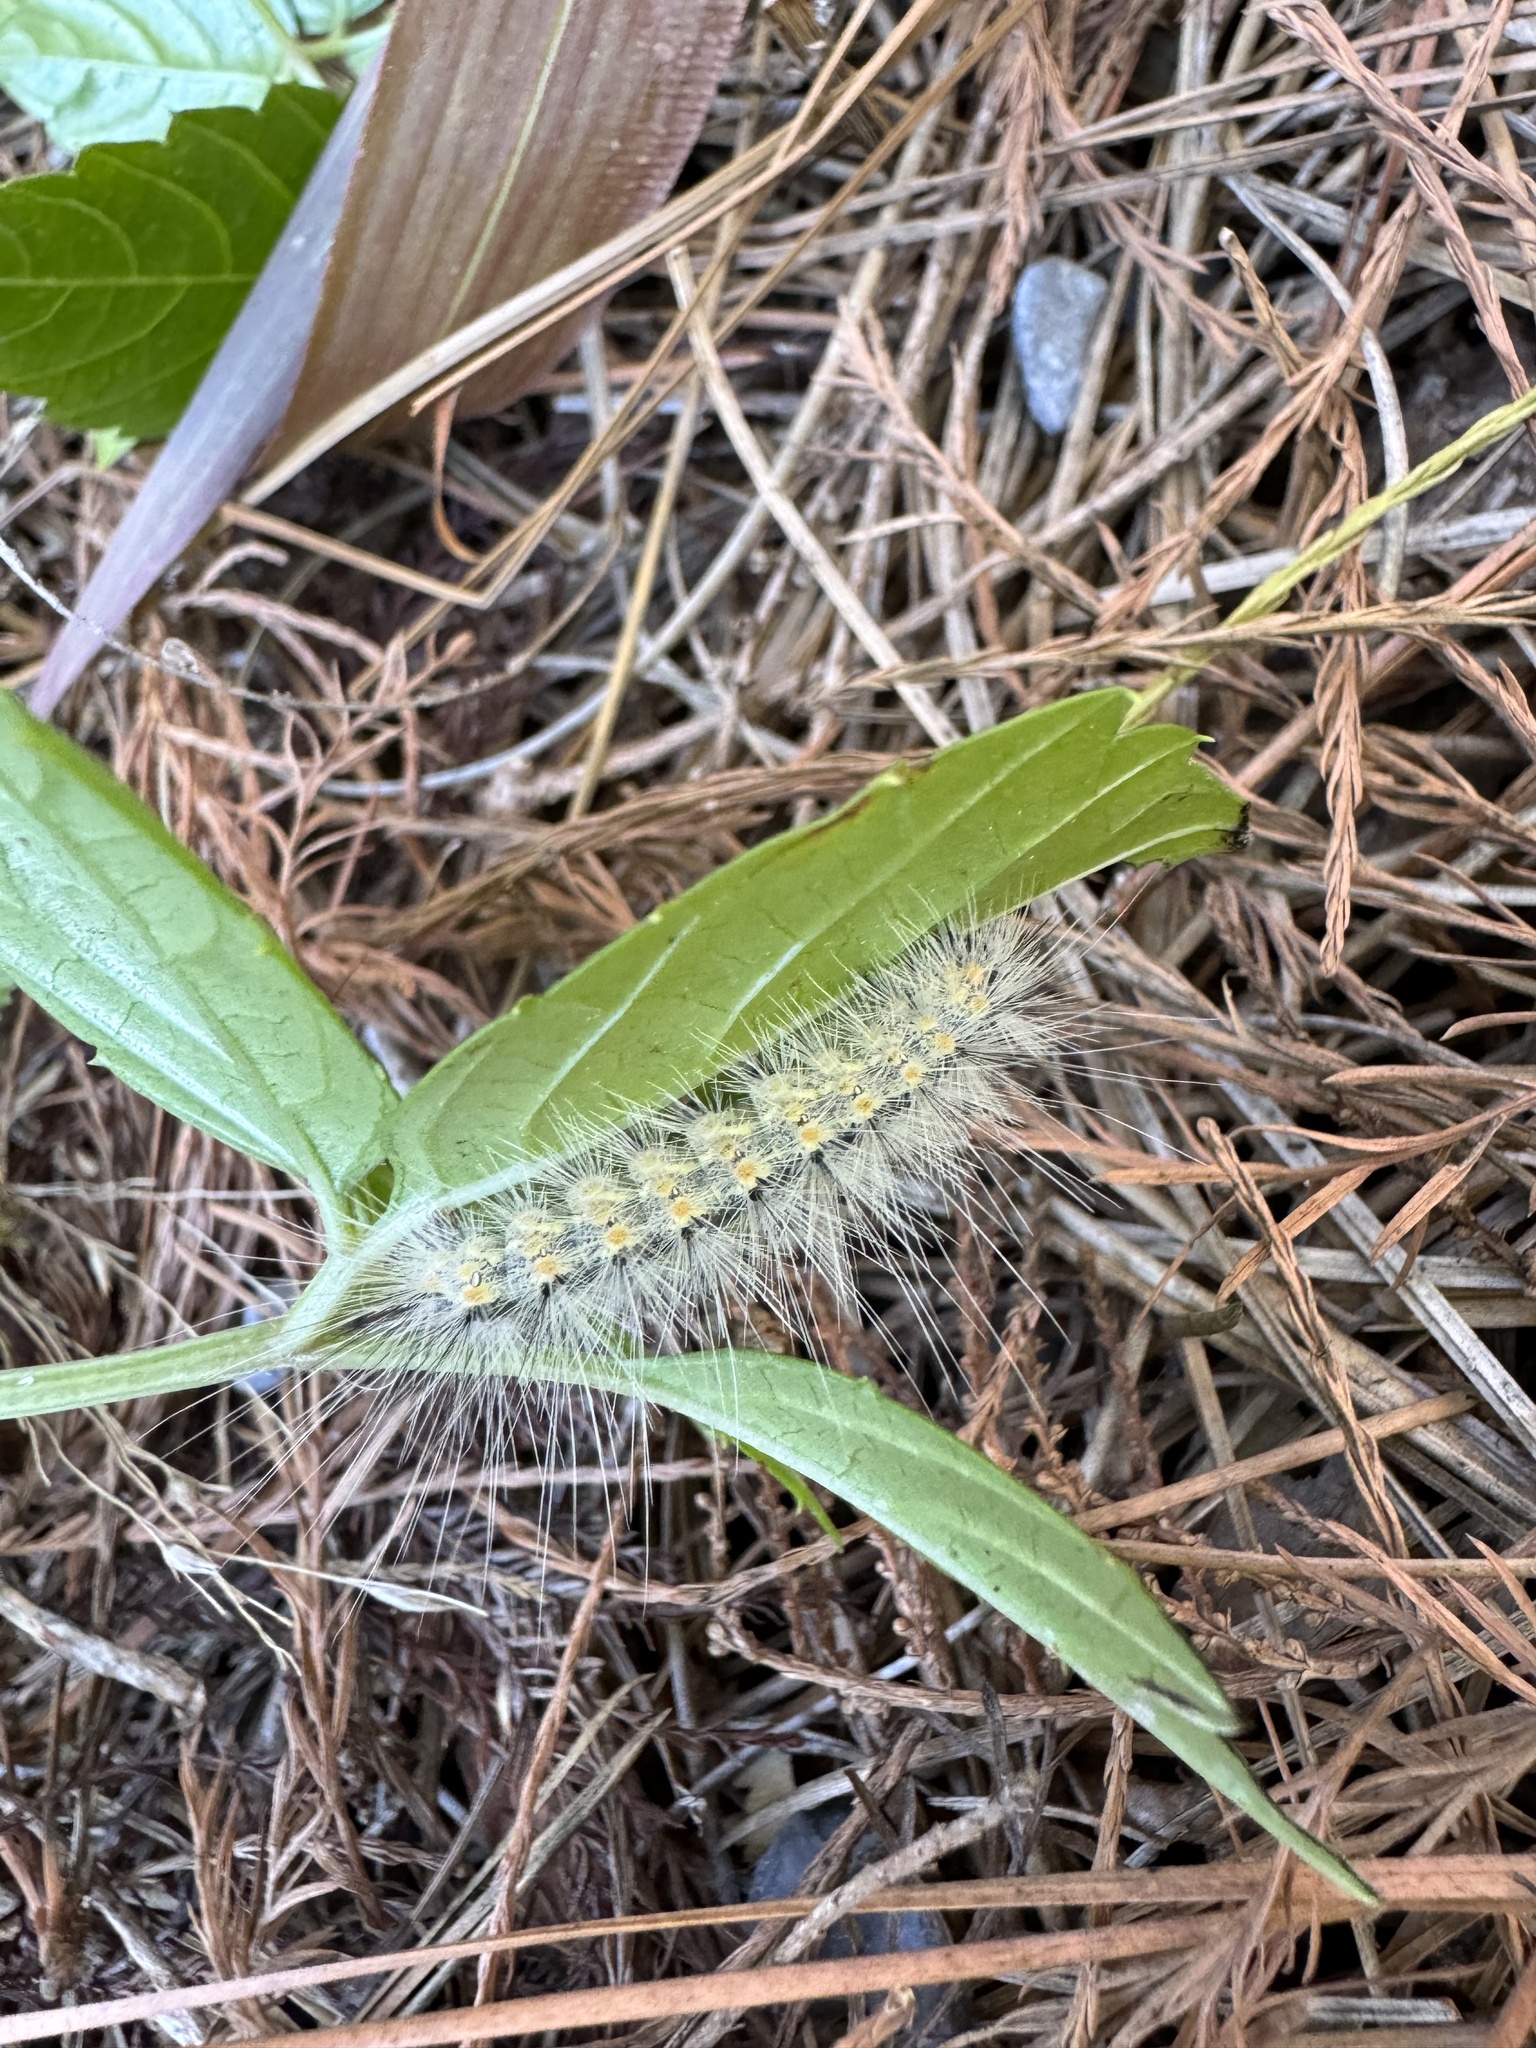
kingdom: Animalia
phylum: Arthropoda
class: Insecta
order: Lepidoptera
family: Erebidae
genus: Hyphantria
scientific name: Hyphantria cunea
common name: American white moth
